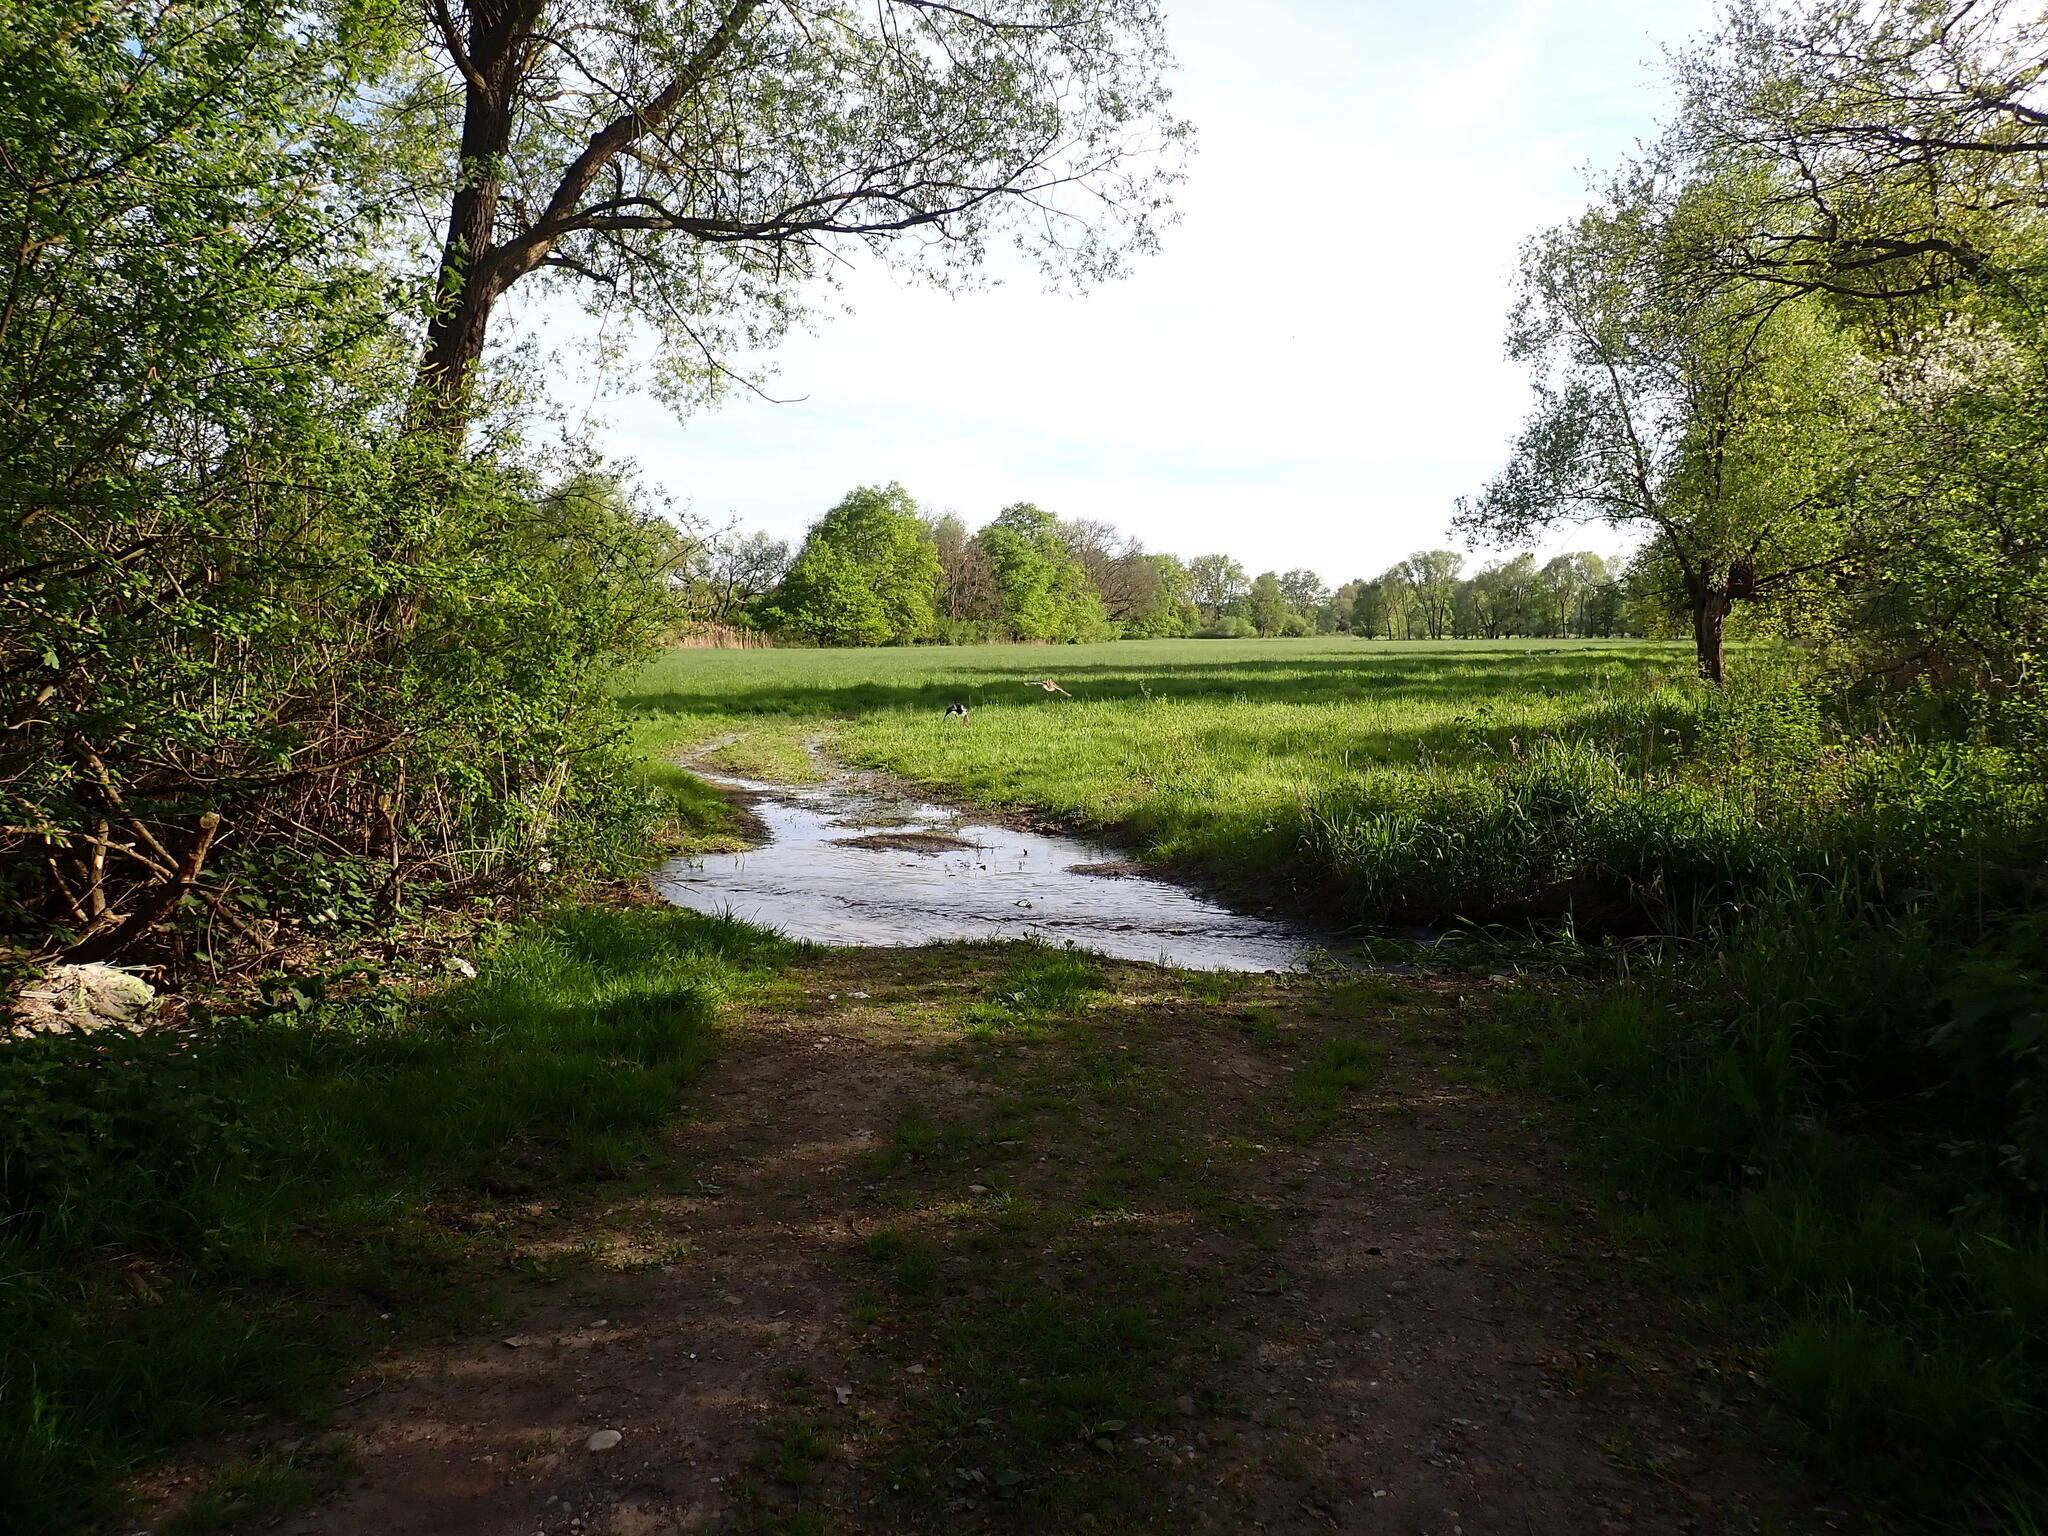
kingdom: Animalia
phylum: Chordata
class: Aves
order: Anseriformes
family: Anatidae
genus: Anas
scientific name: Anas platyrhynchos
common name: Mallard
